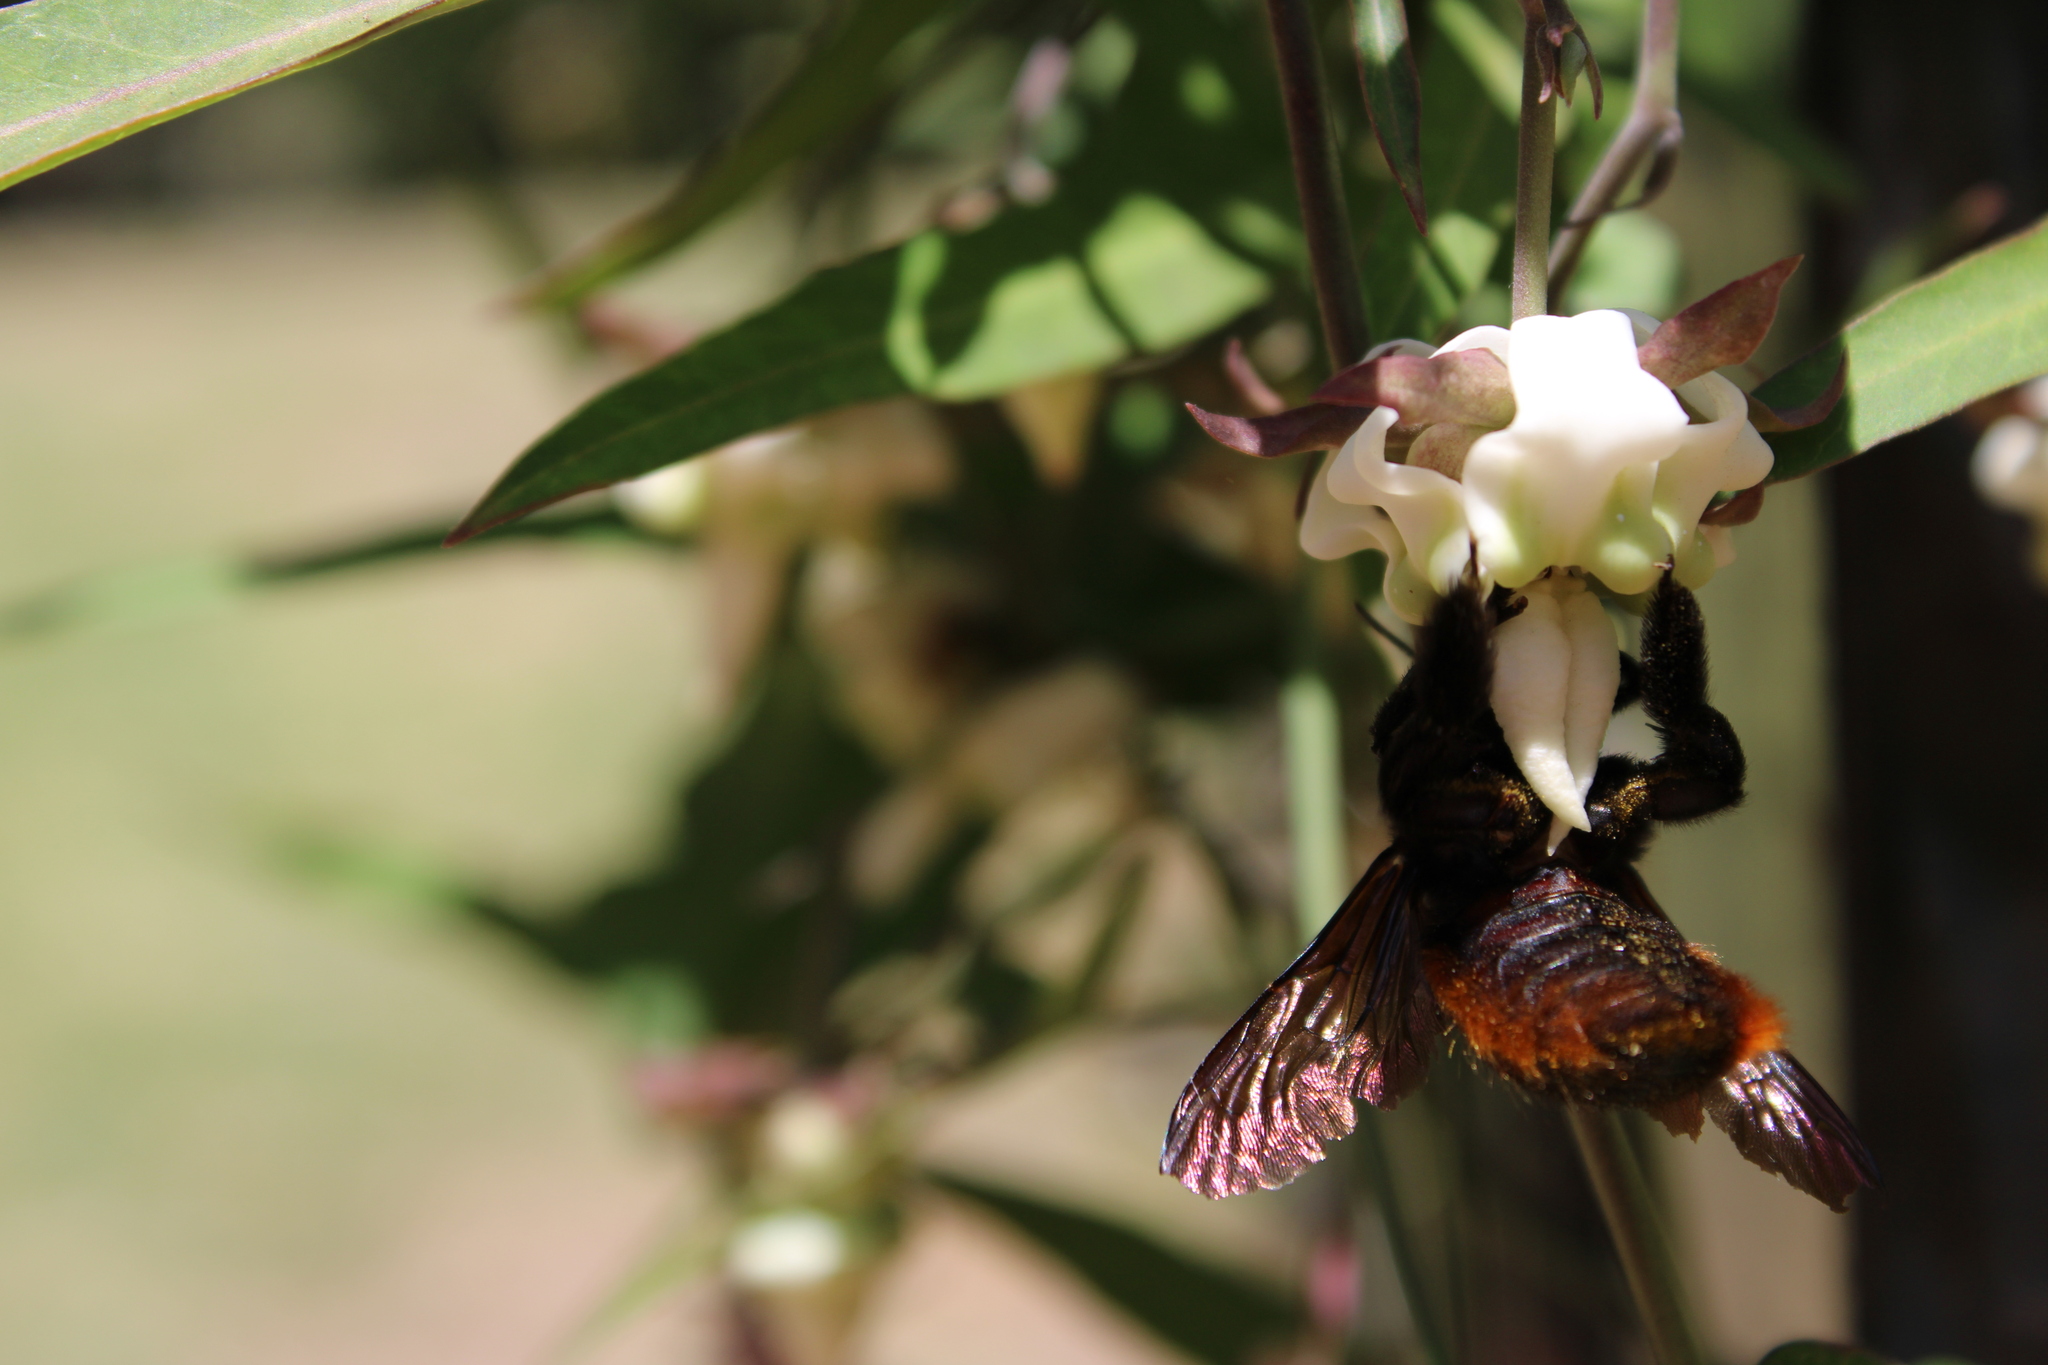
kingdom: Animalia
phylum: Arthropoda
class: Insecta
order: Hymenoptera
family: Apidae
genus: Xylocopa
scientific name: Xylocopa augusti
